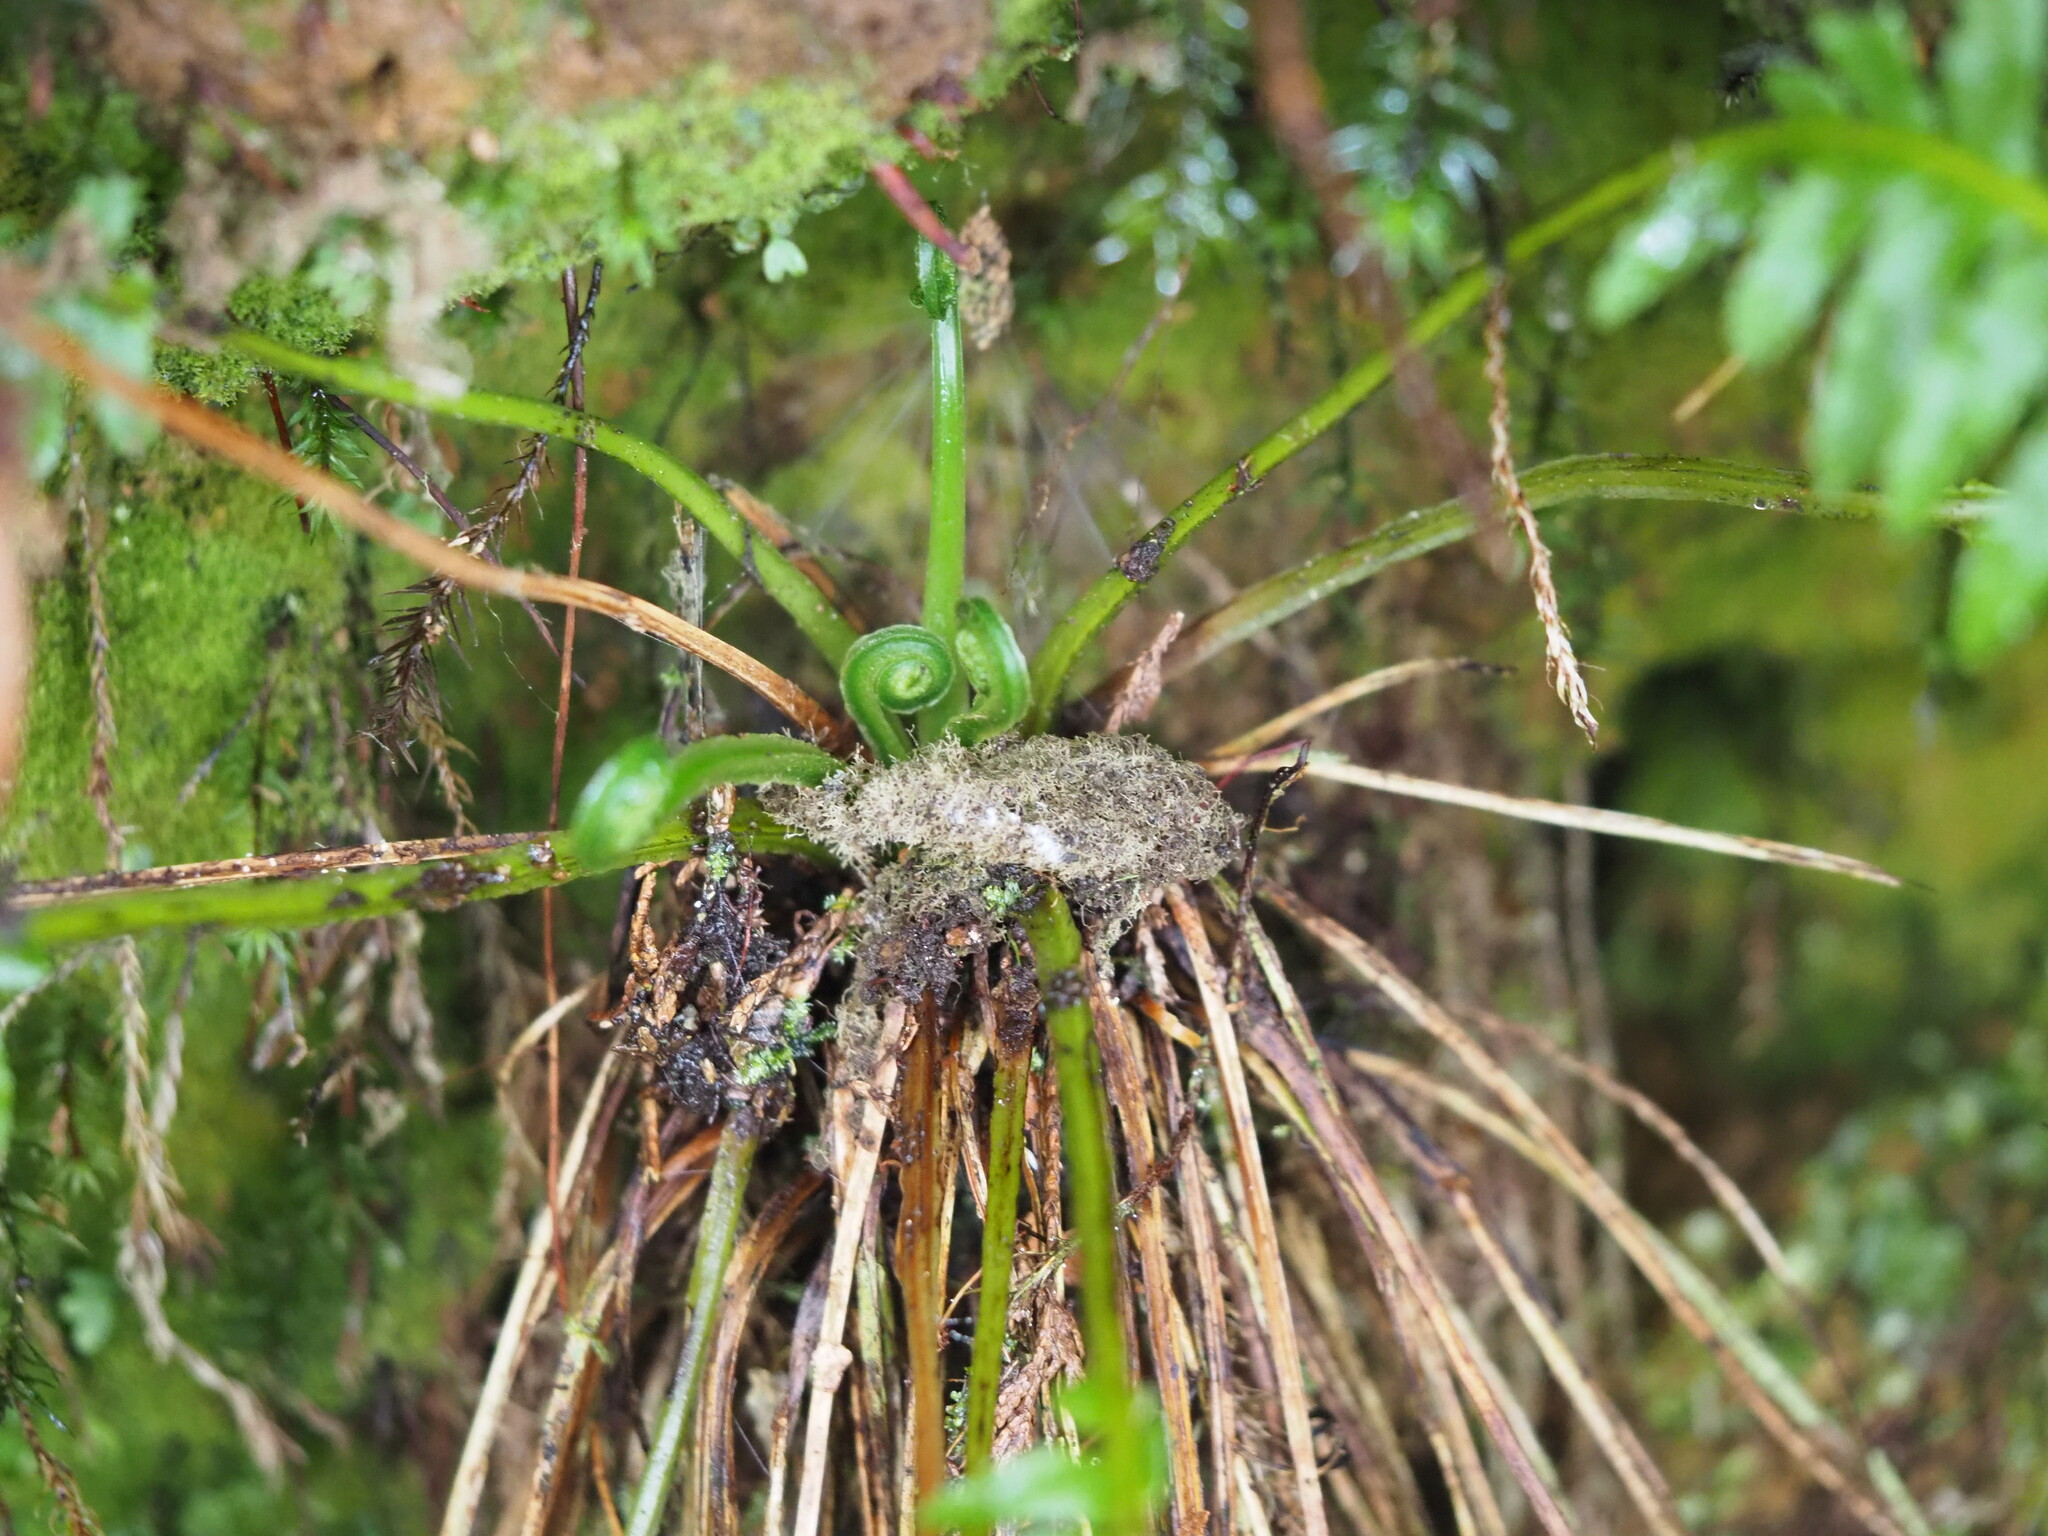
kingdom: Plantae
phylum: Tracheophyta
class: Polypodiopsida
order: Cyatheales
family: Plagiogyriaceae
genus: Plagiogyria
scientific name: Plagiogyria stenoptera
